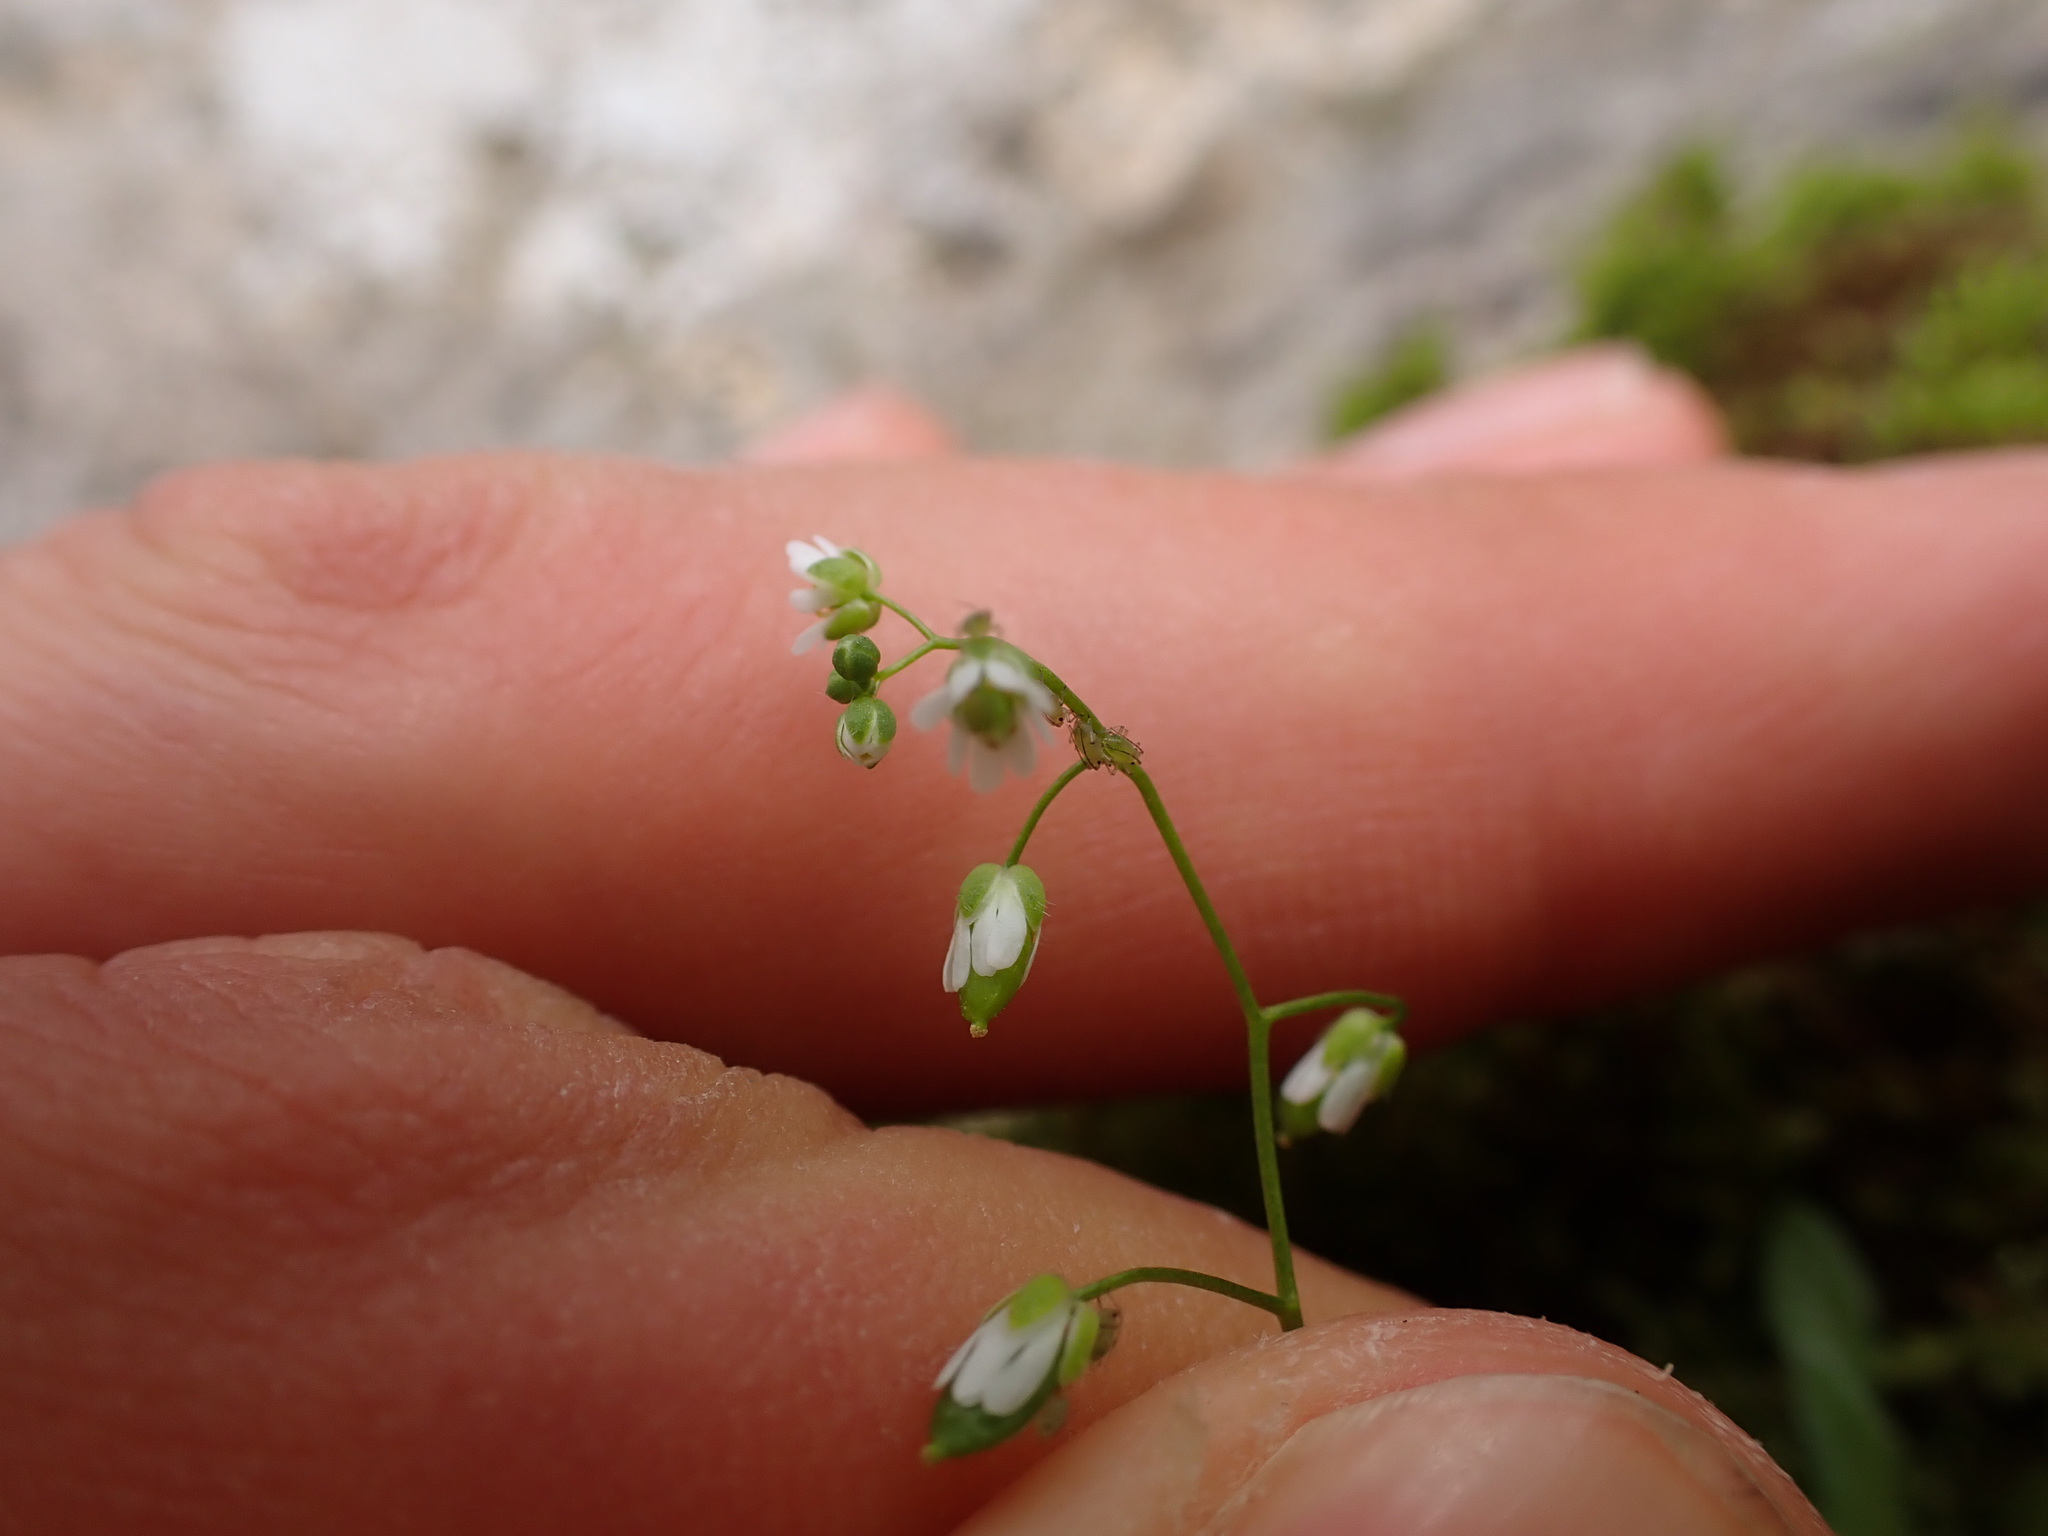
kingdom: Plantae
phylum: Tracheophyta
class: Magnoliopsida
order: Brassicales
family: Brassicaceae
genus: Draba
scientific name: Draba verna
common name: Spring draba
